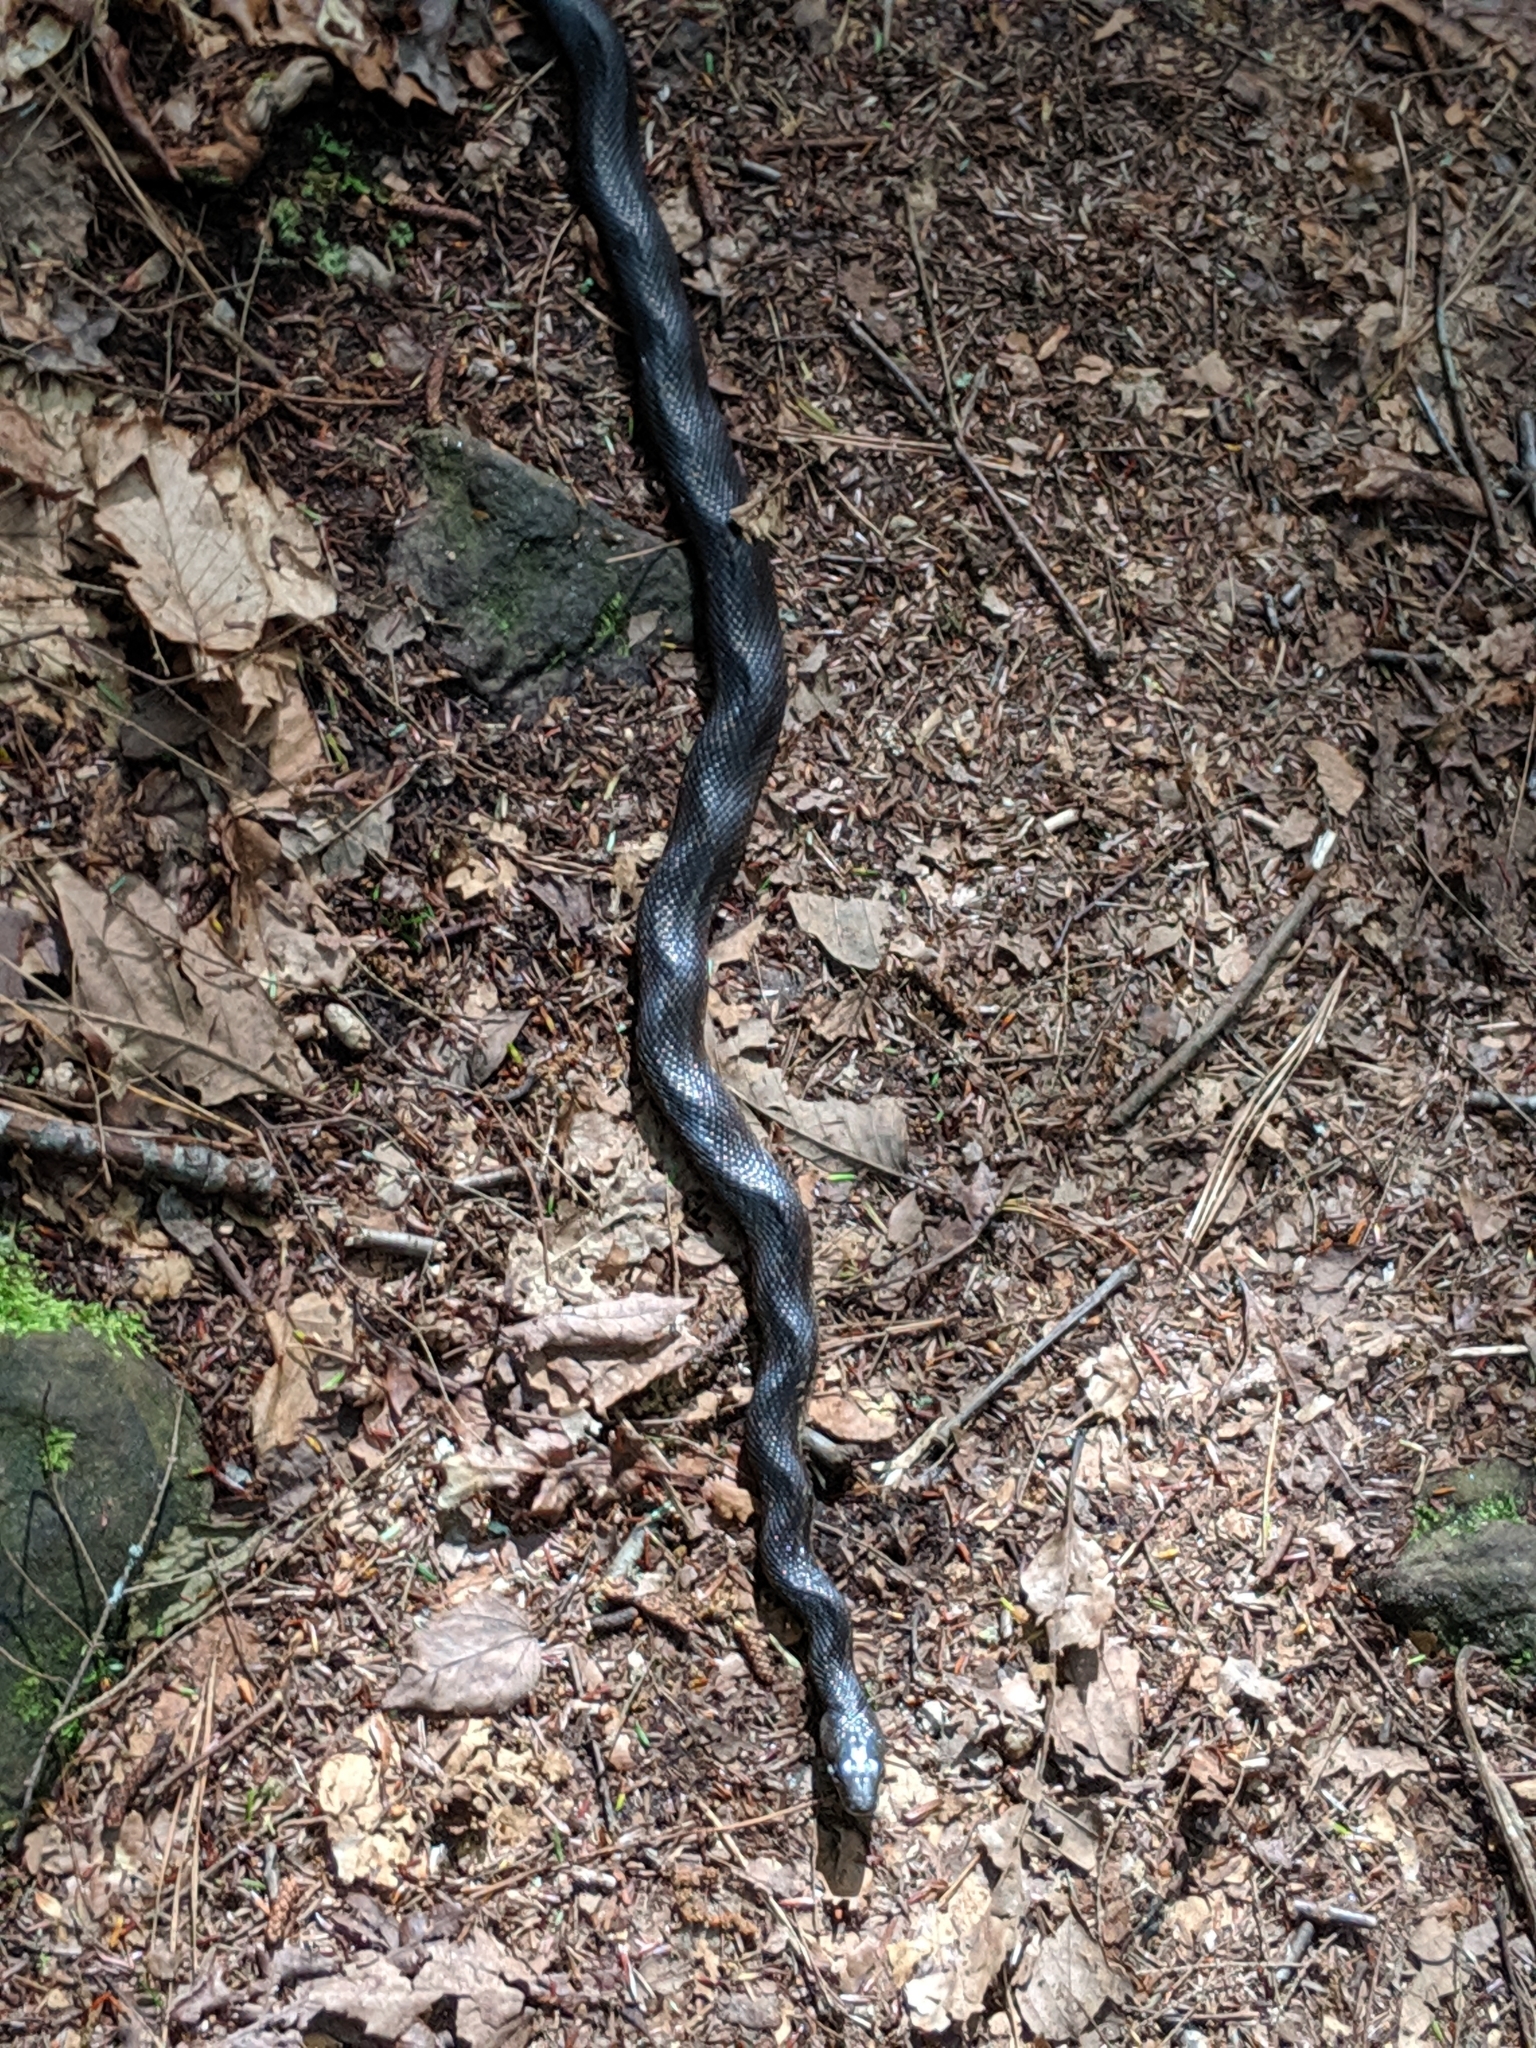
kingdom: Animalia
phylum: Chordata
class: Squamata
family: Colubridae
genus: Pantherophis
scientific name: Pantherophis spiloides
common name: Gray rat snake
